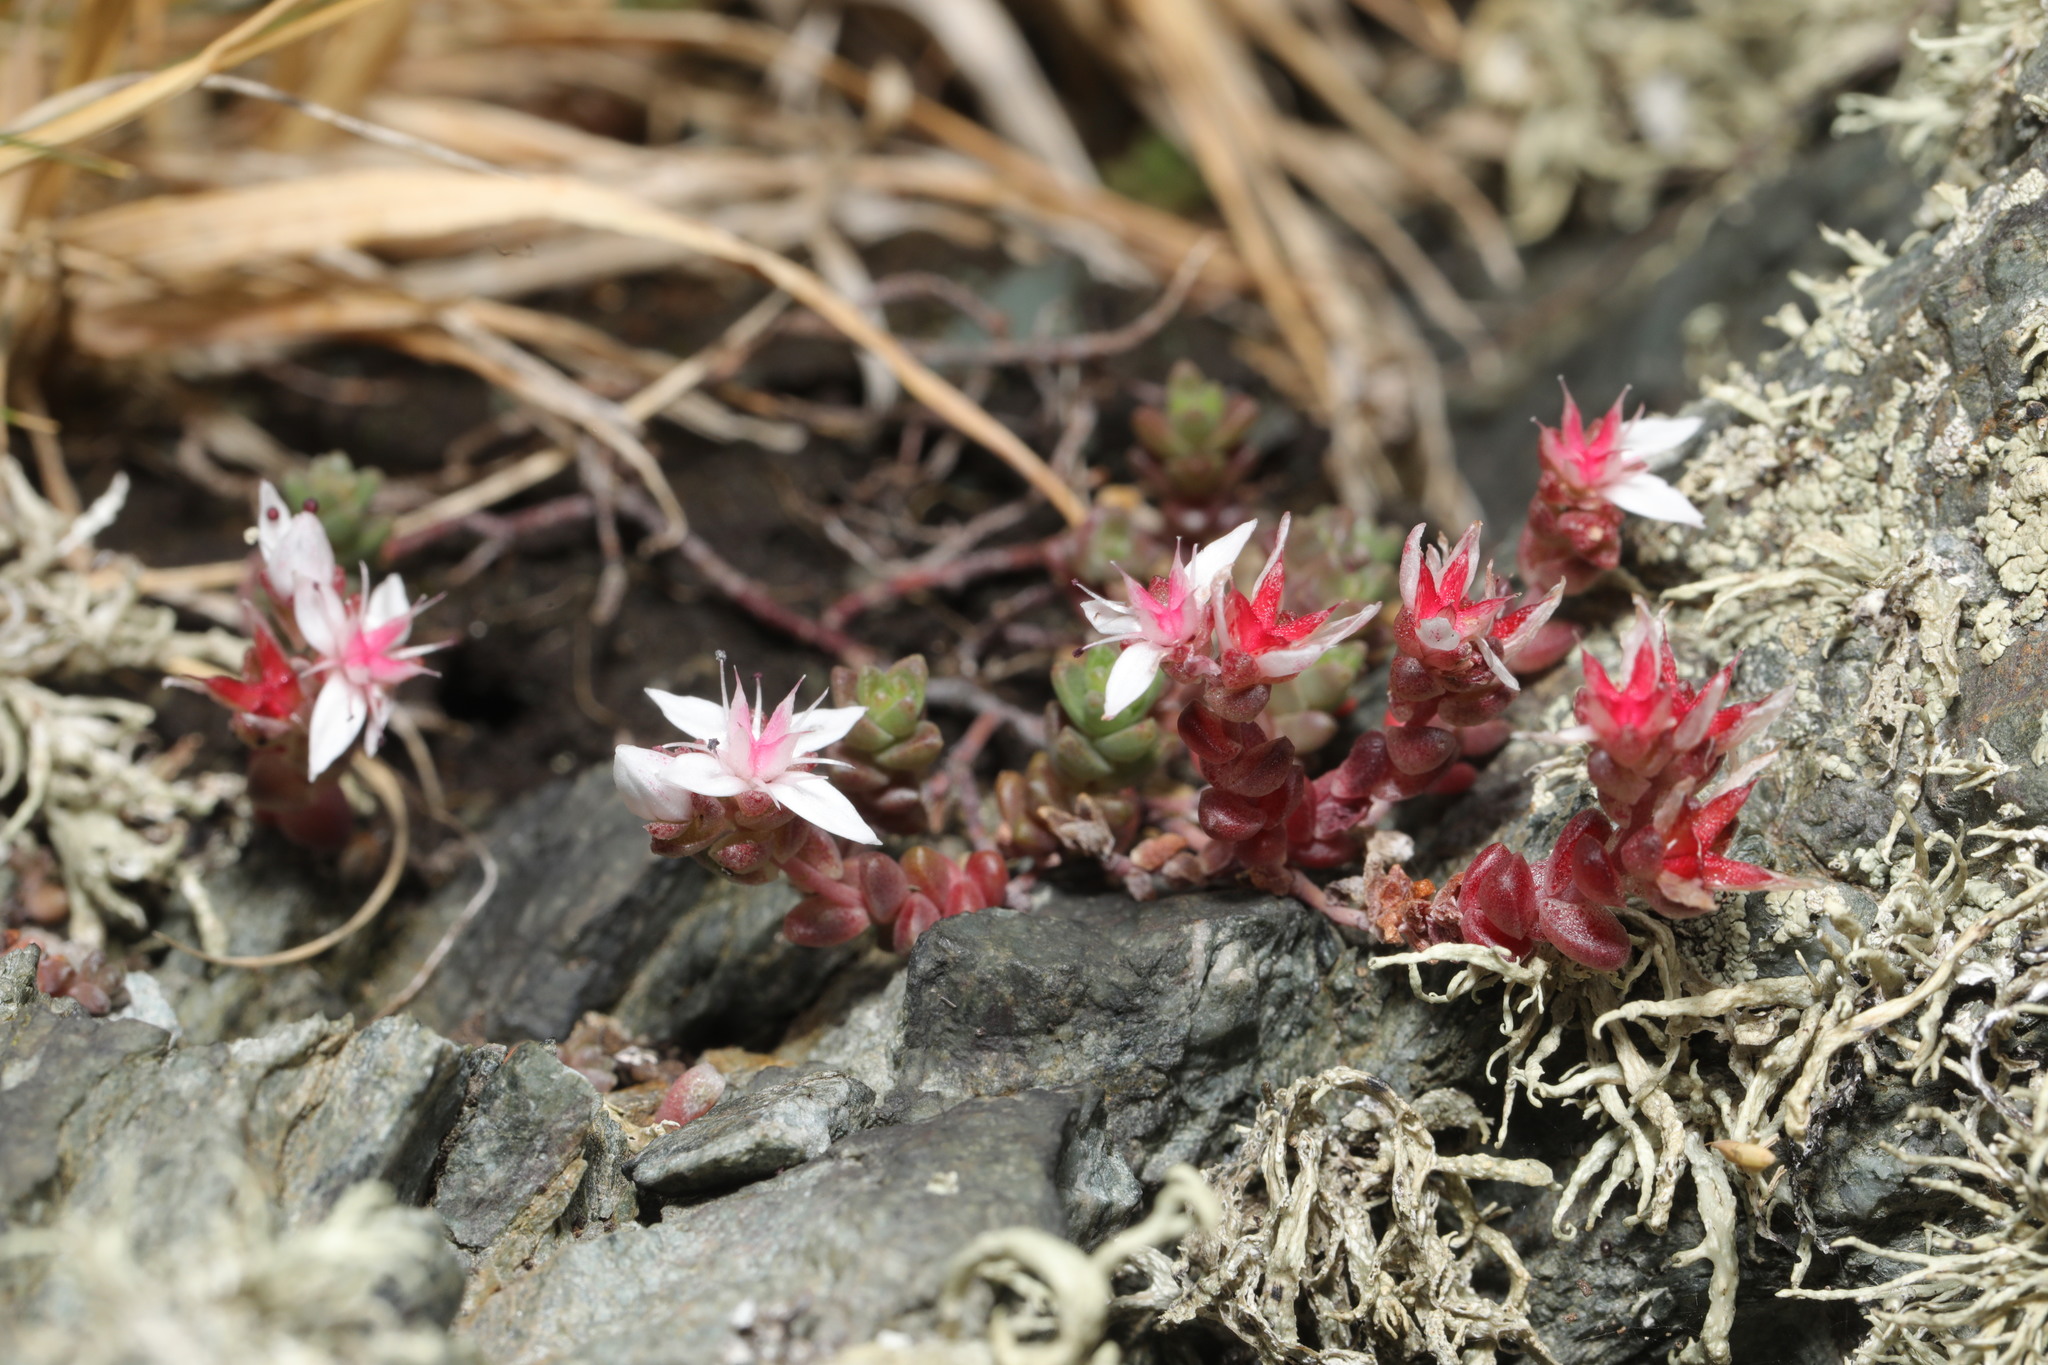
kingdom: Plantae
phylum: Tracheophyta
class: Magnoliopsida
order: Saxifragales
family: Crassulaceae
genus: Sedum
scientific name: Sedum anglicum
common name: English stonecrop
